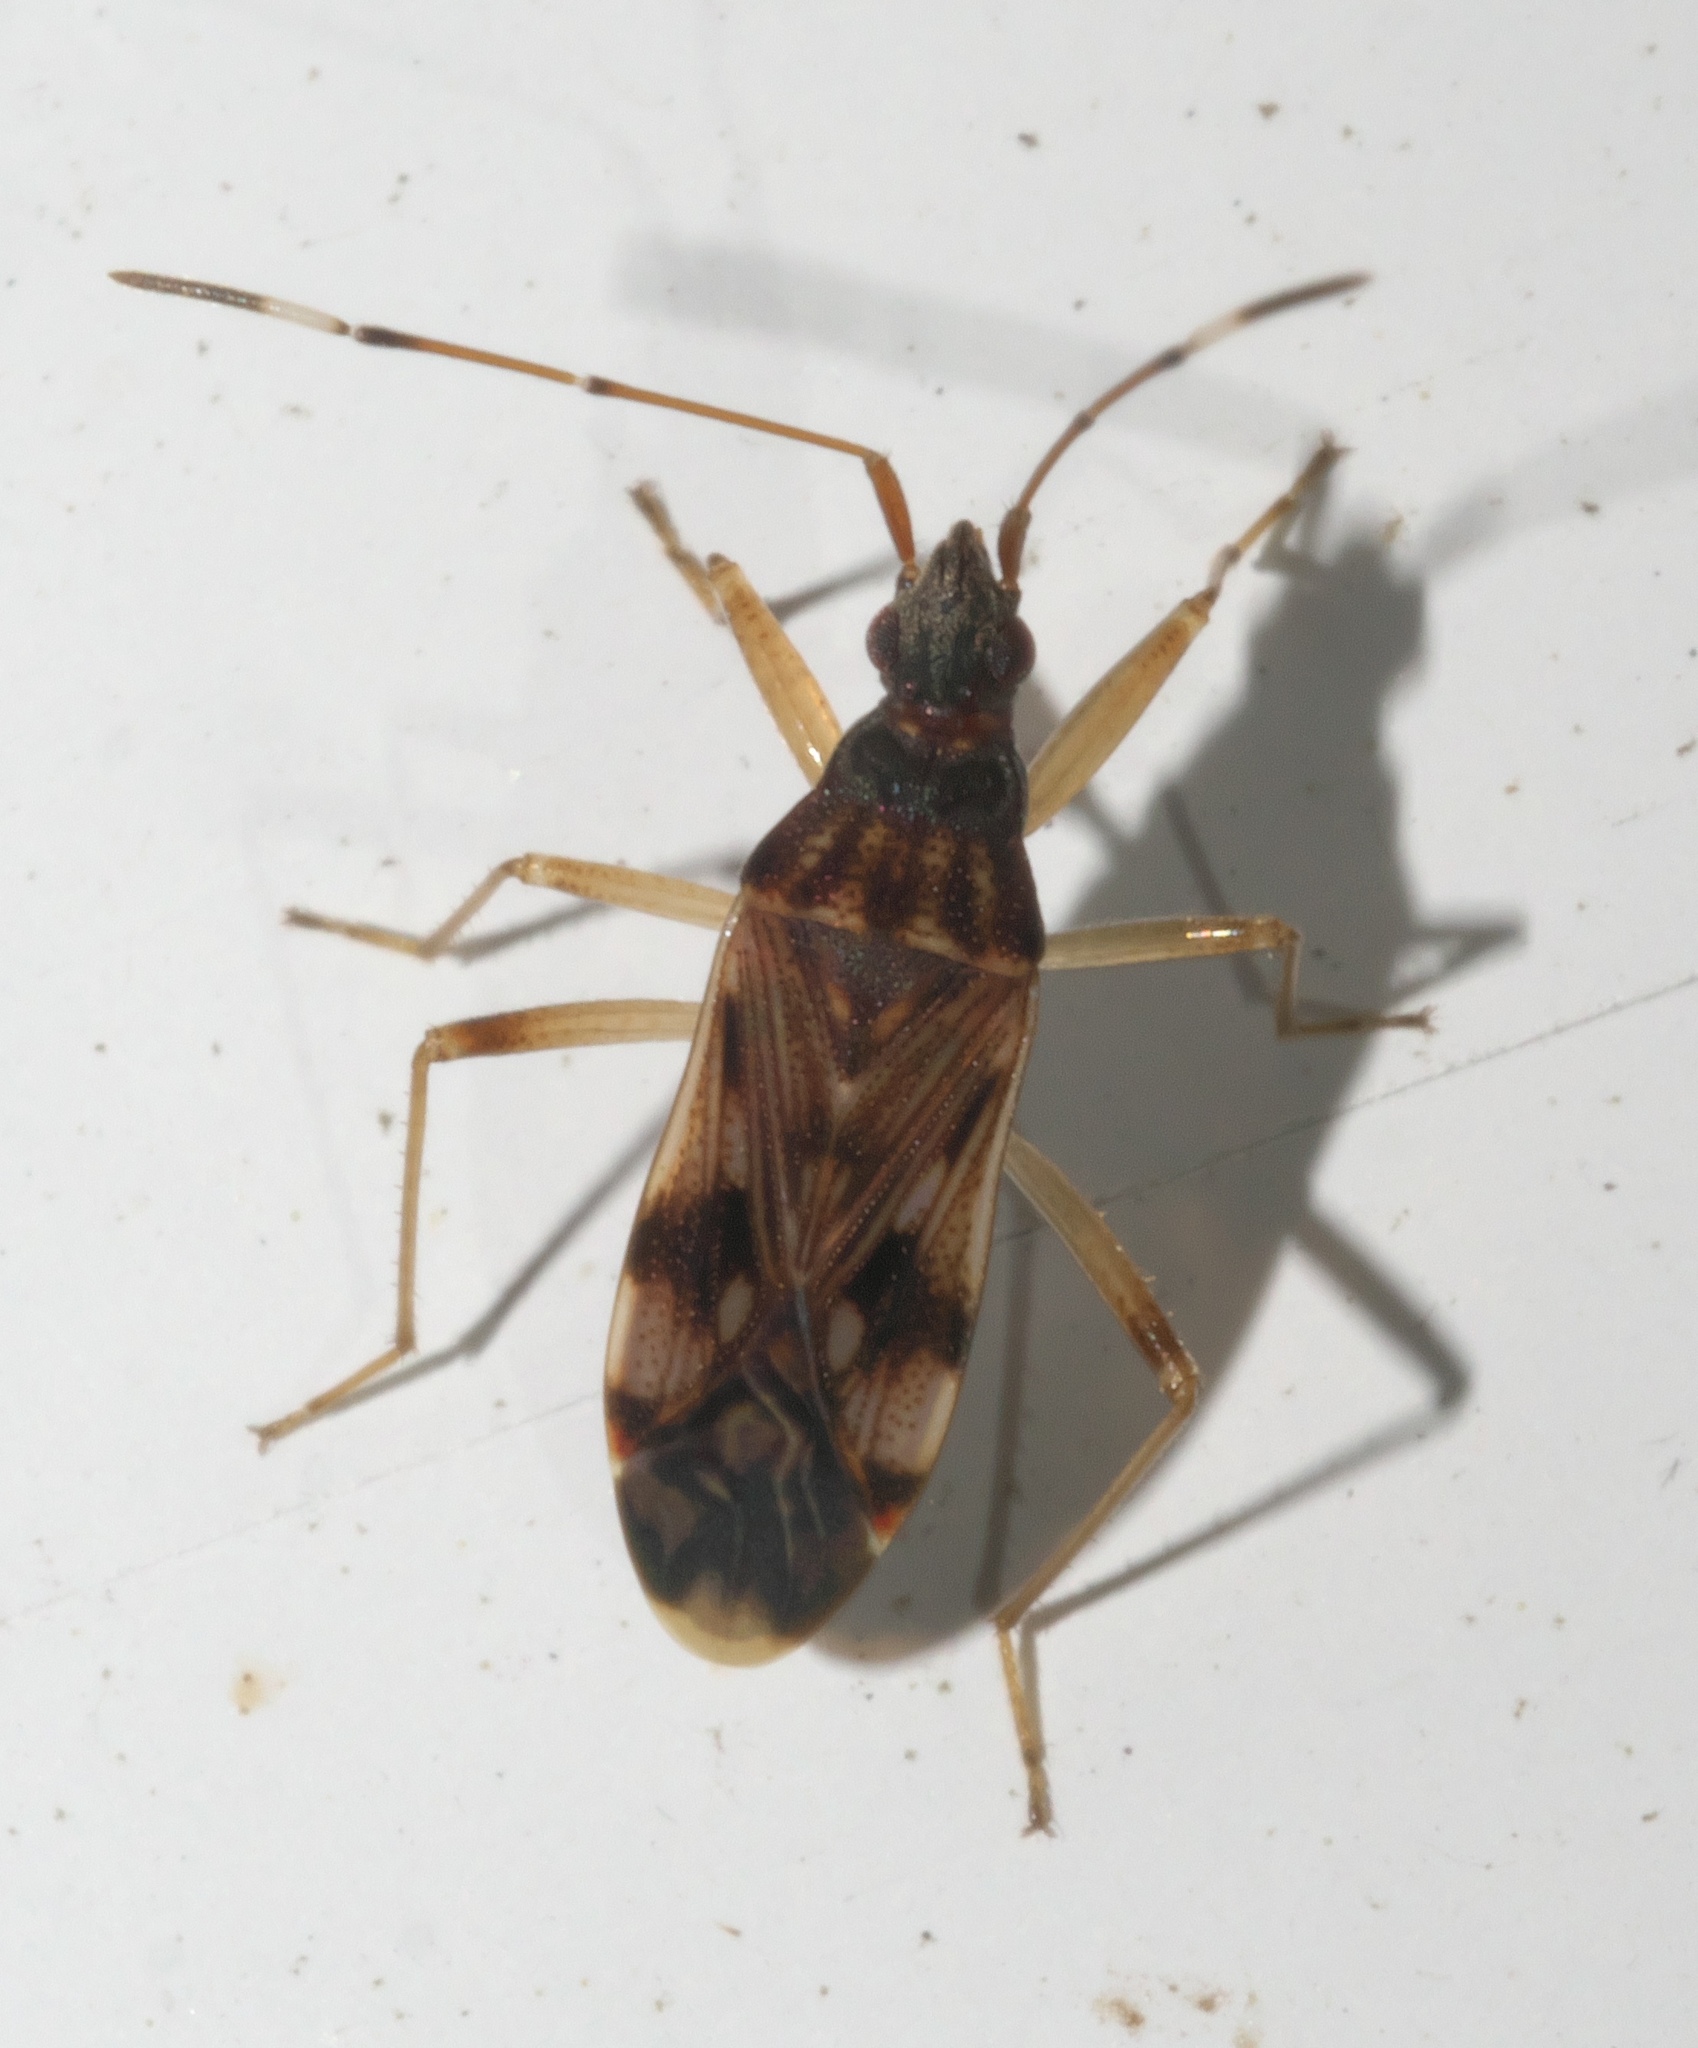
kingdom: Animalia
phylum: Arthropoda
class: Insecta
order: Hemiptera
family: Rhyparochromidae
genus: Ozophora
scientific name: Ozophora picturata
